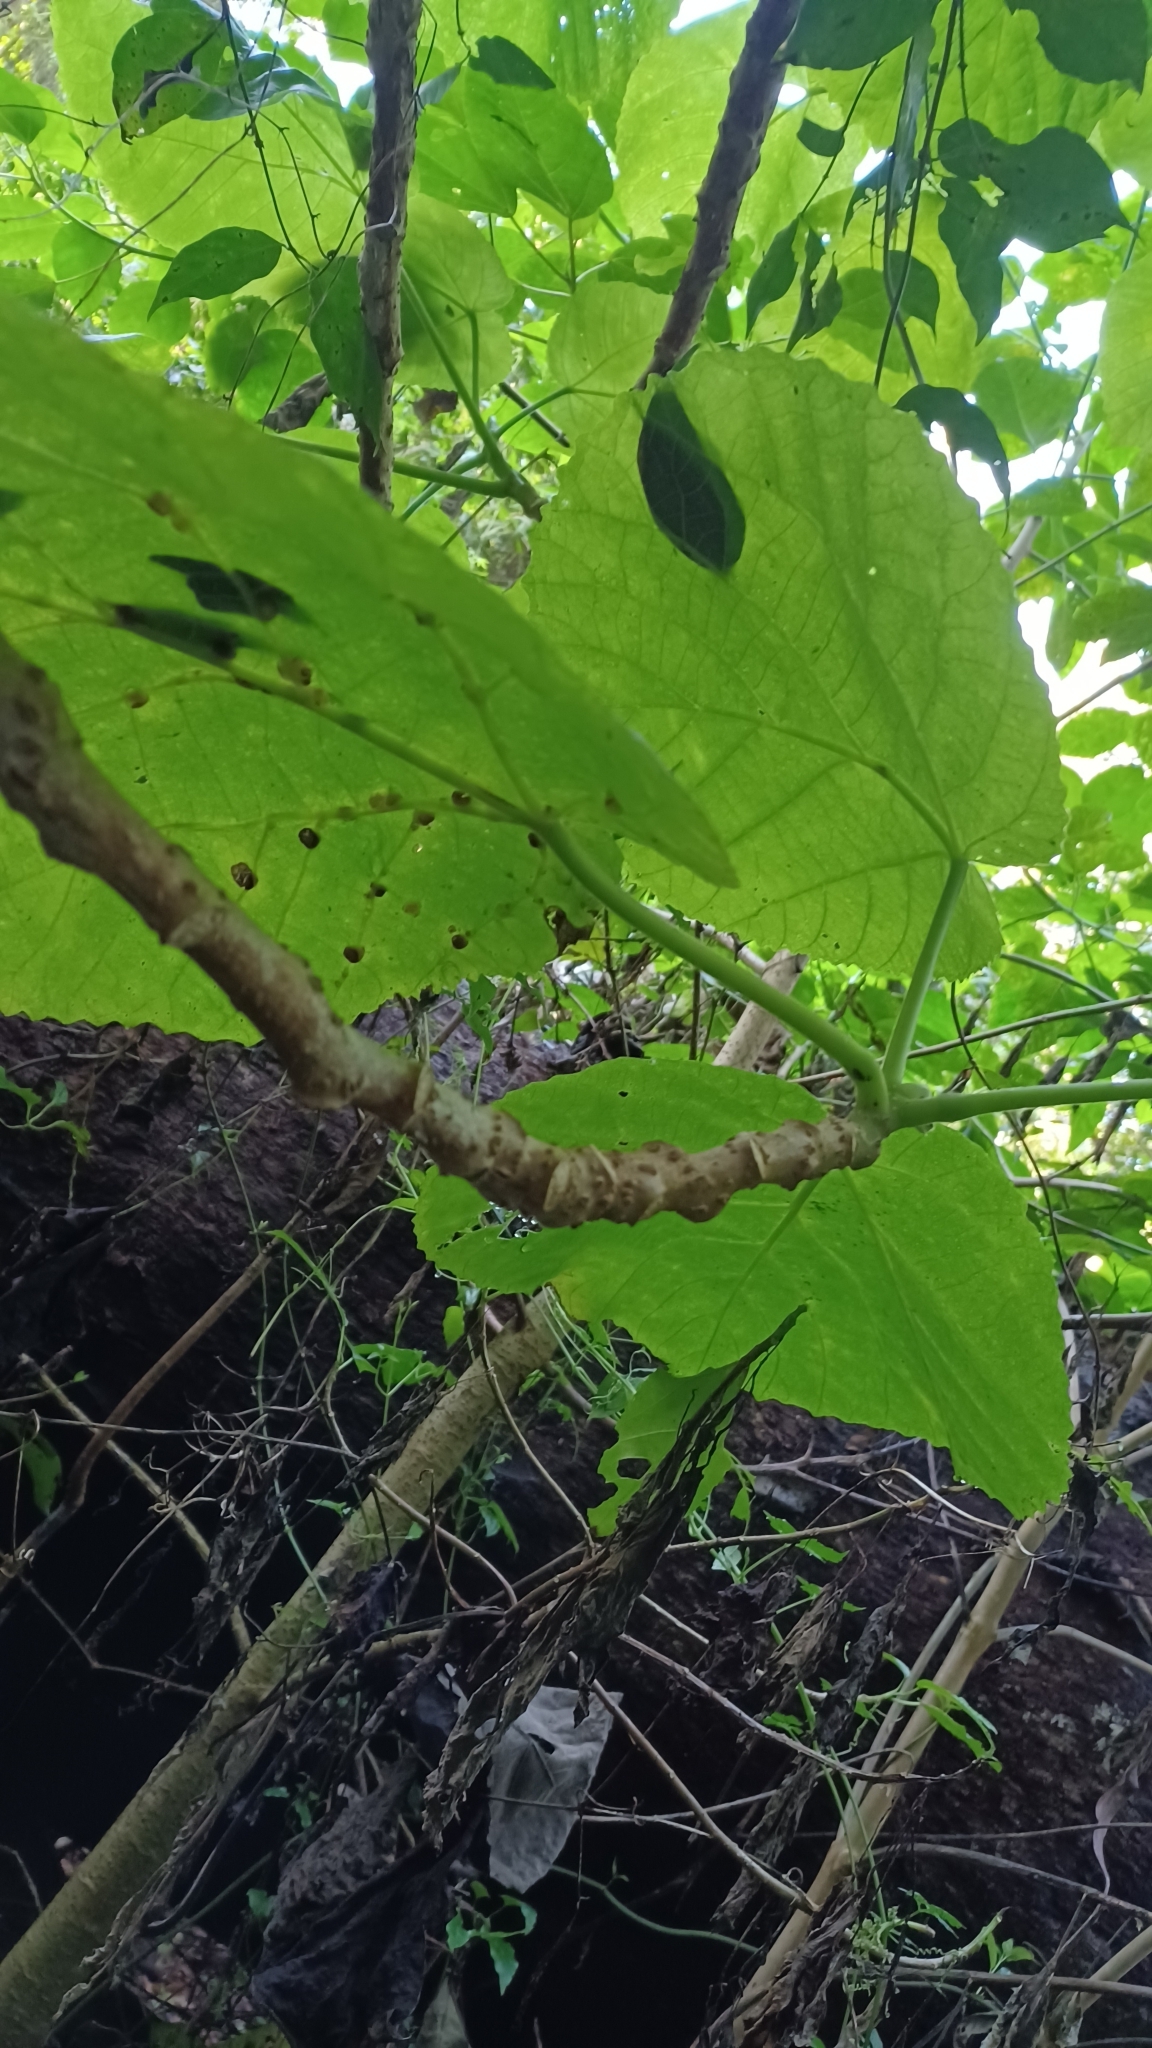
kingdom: Plantae
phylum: Tracheophyta
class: Magnoliopsida
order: Rosales
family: Urticaceae
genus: Dendrocnide
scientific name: Dendrocnide excelsa
